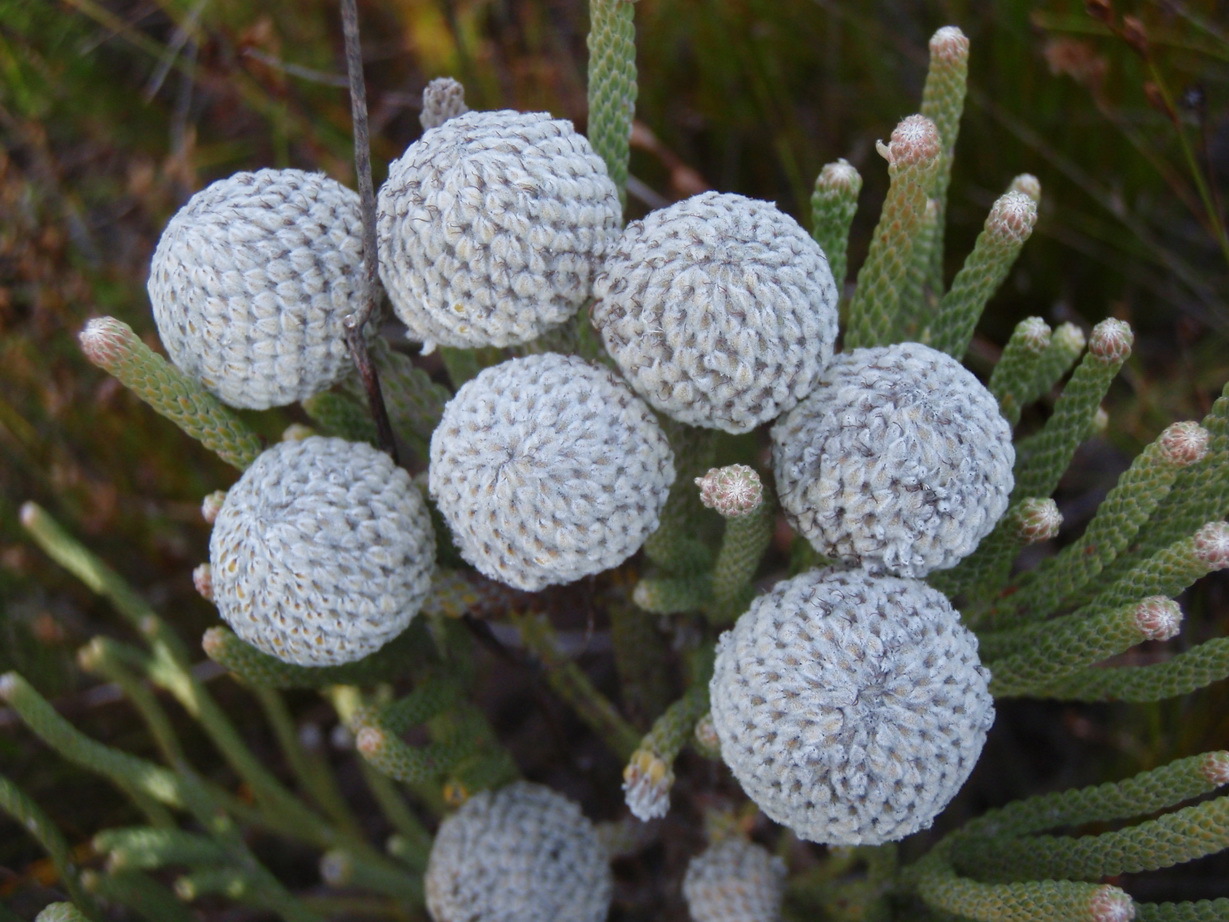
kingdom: Plantae
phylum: Tracheophyta
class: Magnoliopsida
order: Bruniales
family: Bruniaceae
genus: Brunia
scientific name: Brunia laevis
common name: Silver brunia
